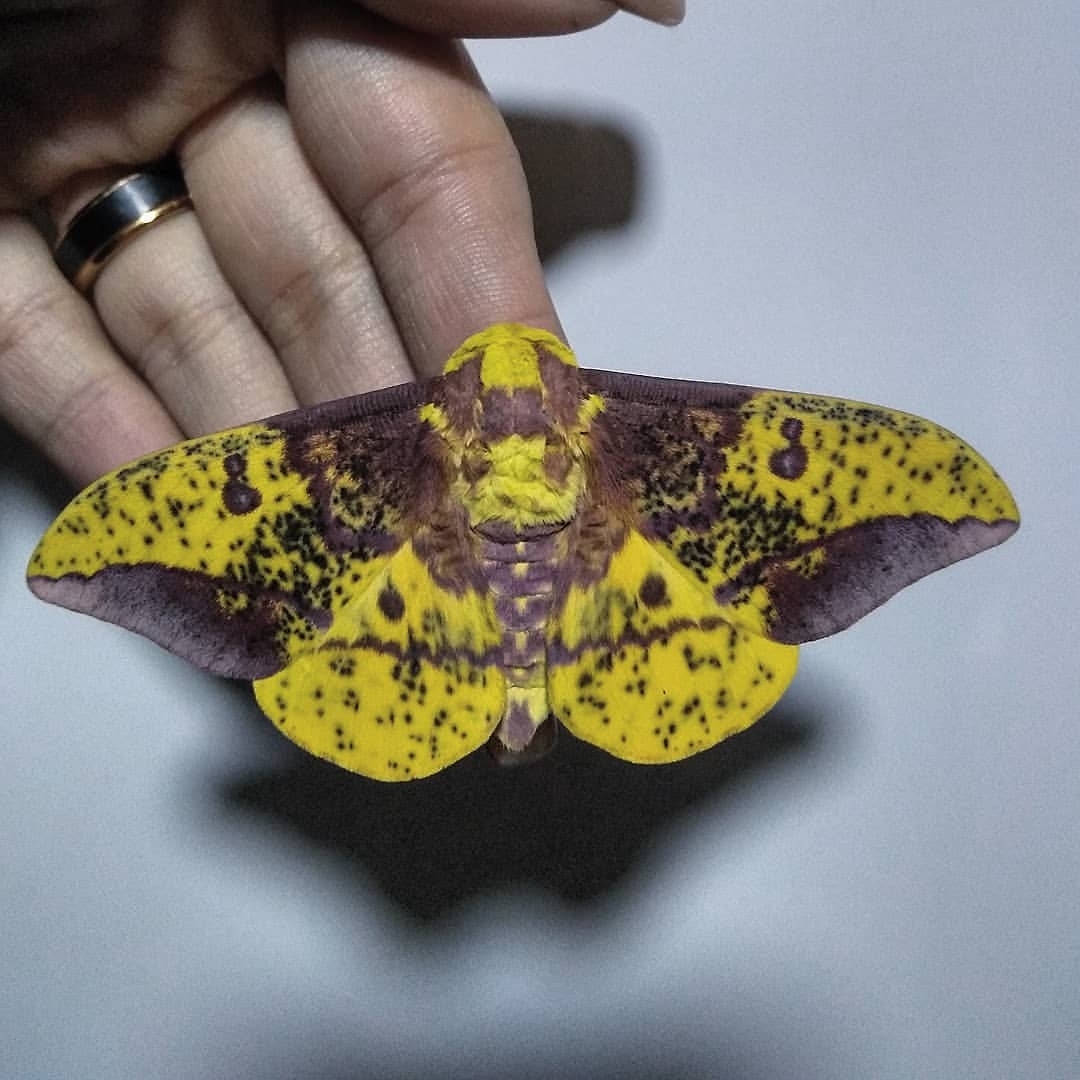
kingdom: Animalia
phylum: Arthropoda
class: Insecta
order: Lepidoptera
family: Saturniidae
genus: Eacles
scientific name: Eacles imperialis
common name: Imperial moth
